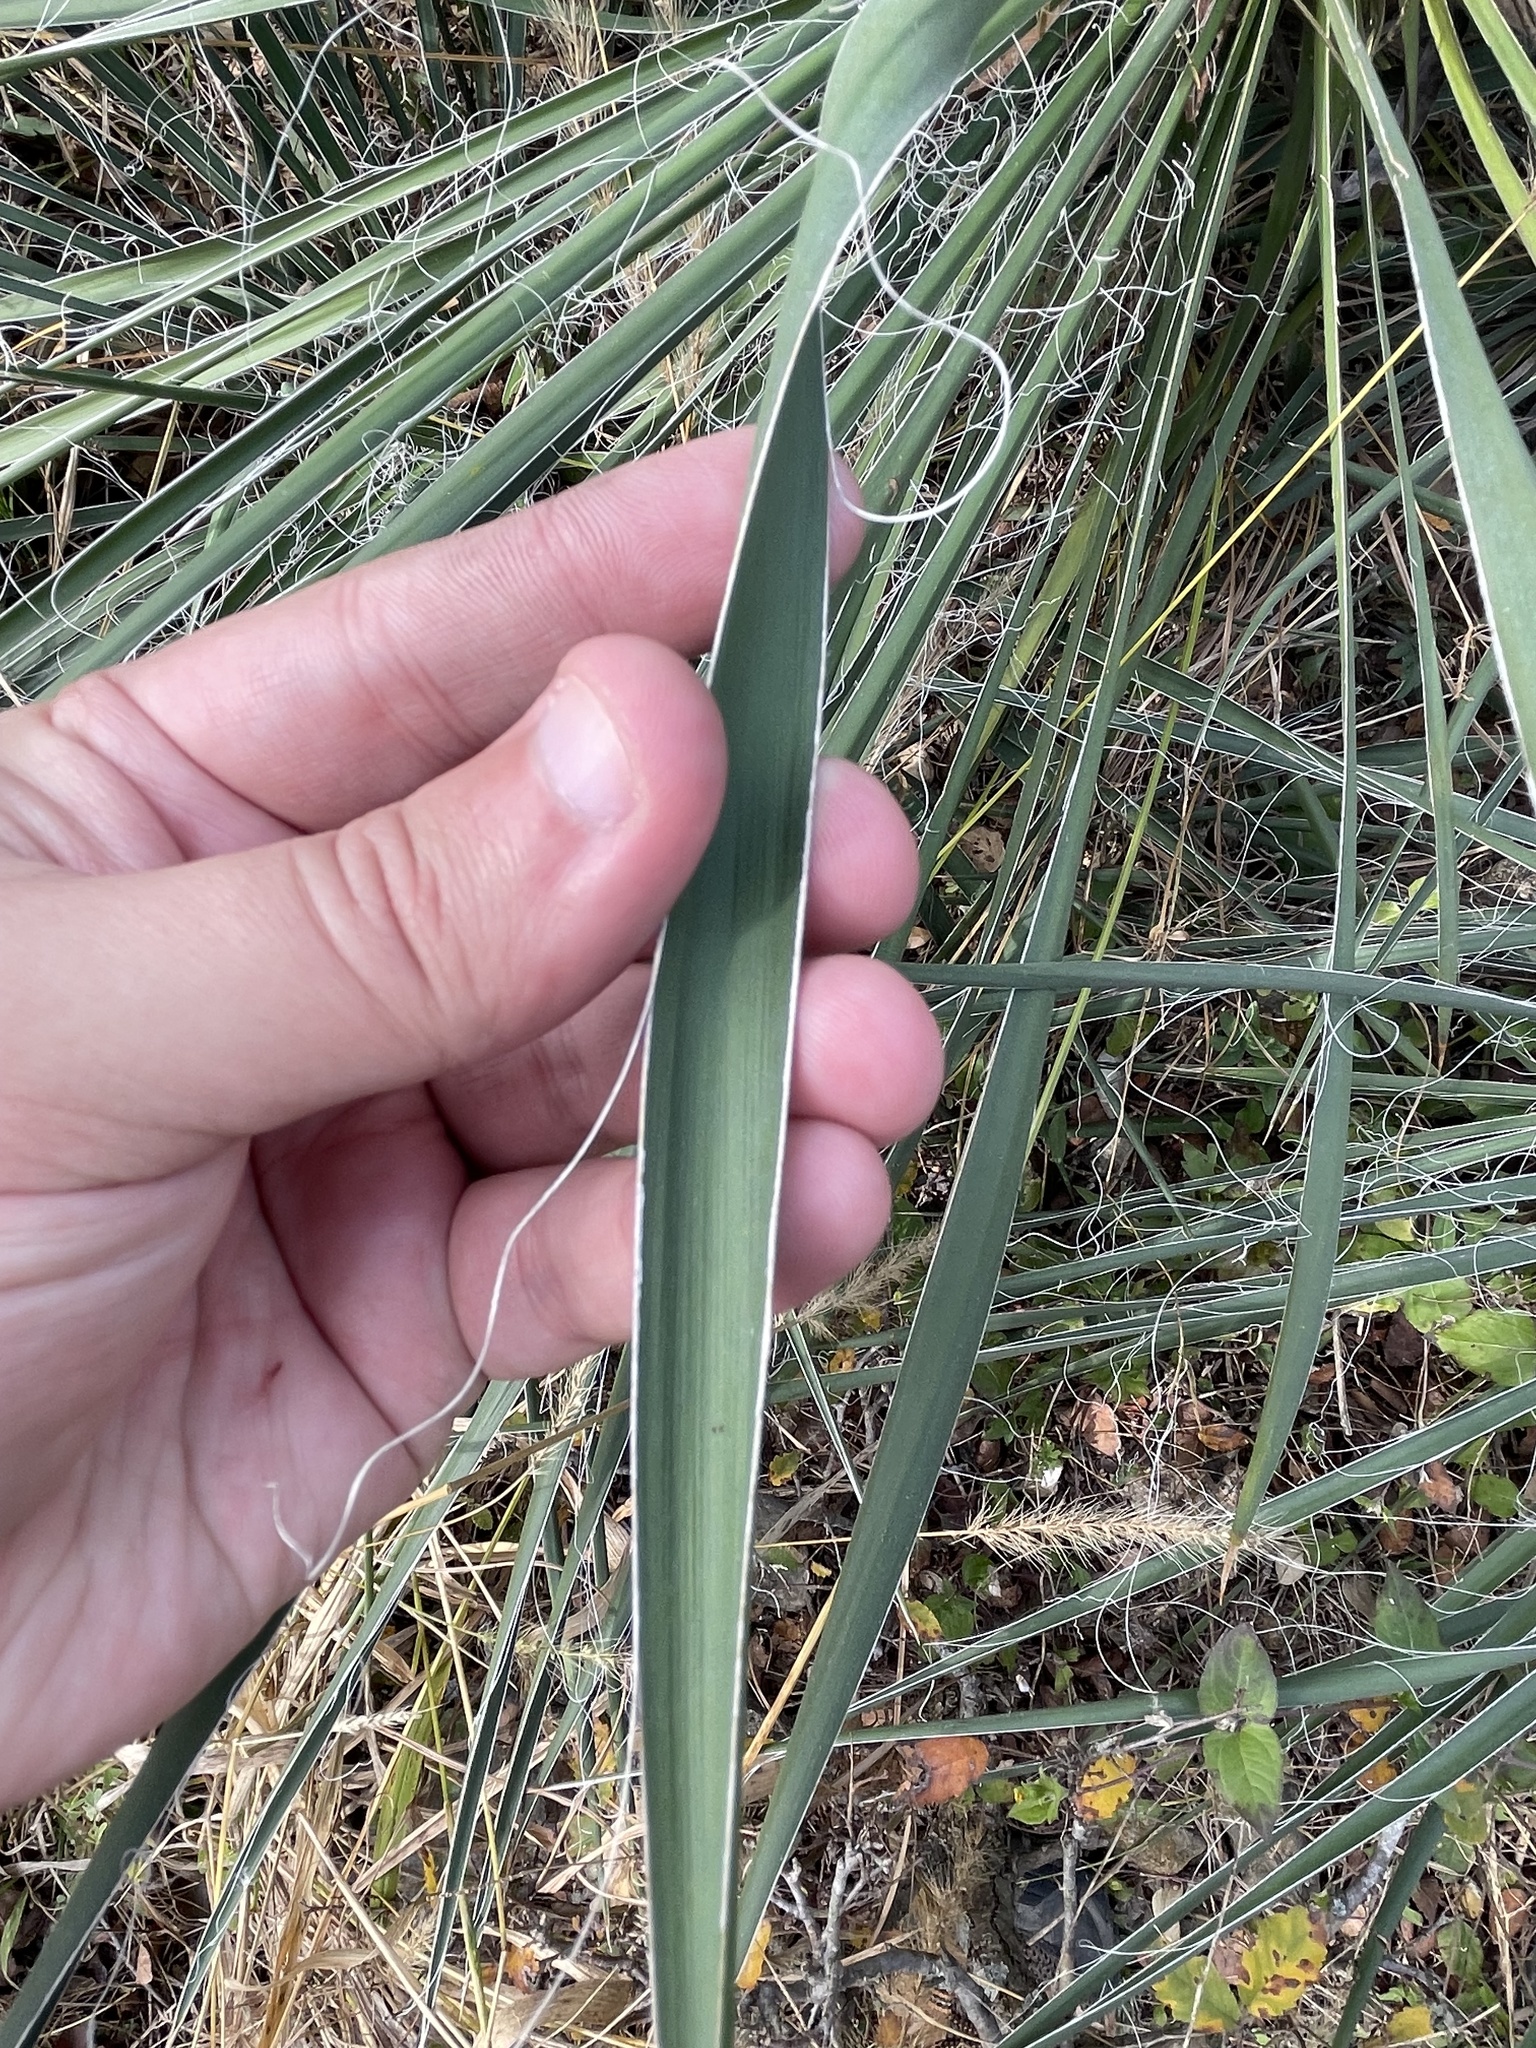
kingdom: Plantae
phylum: Tracheophyta
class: Liliopsida
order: Asparagales
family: Asparagaceae
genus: Yucca
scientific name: Yucca constricta
